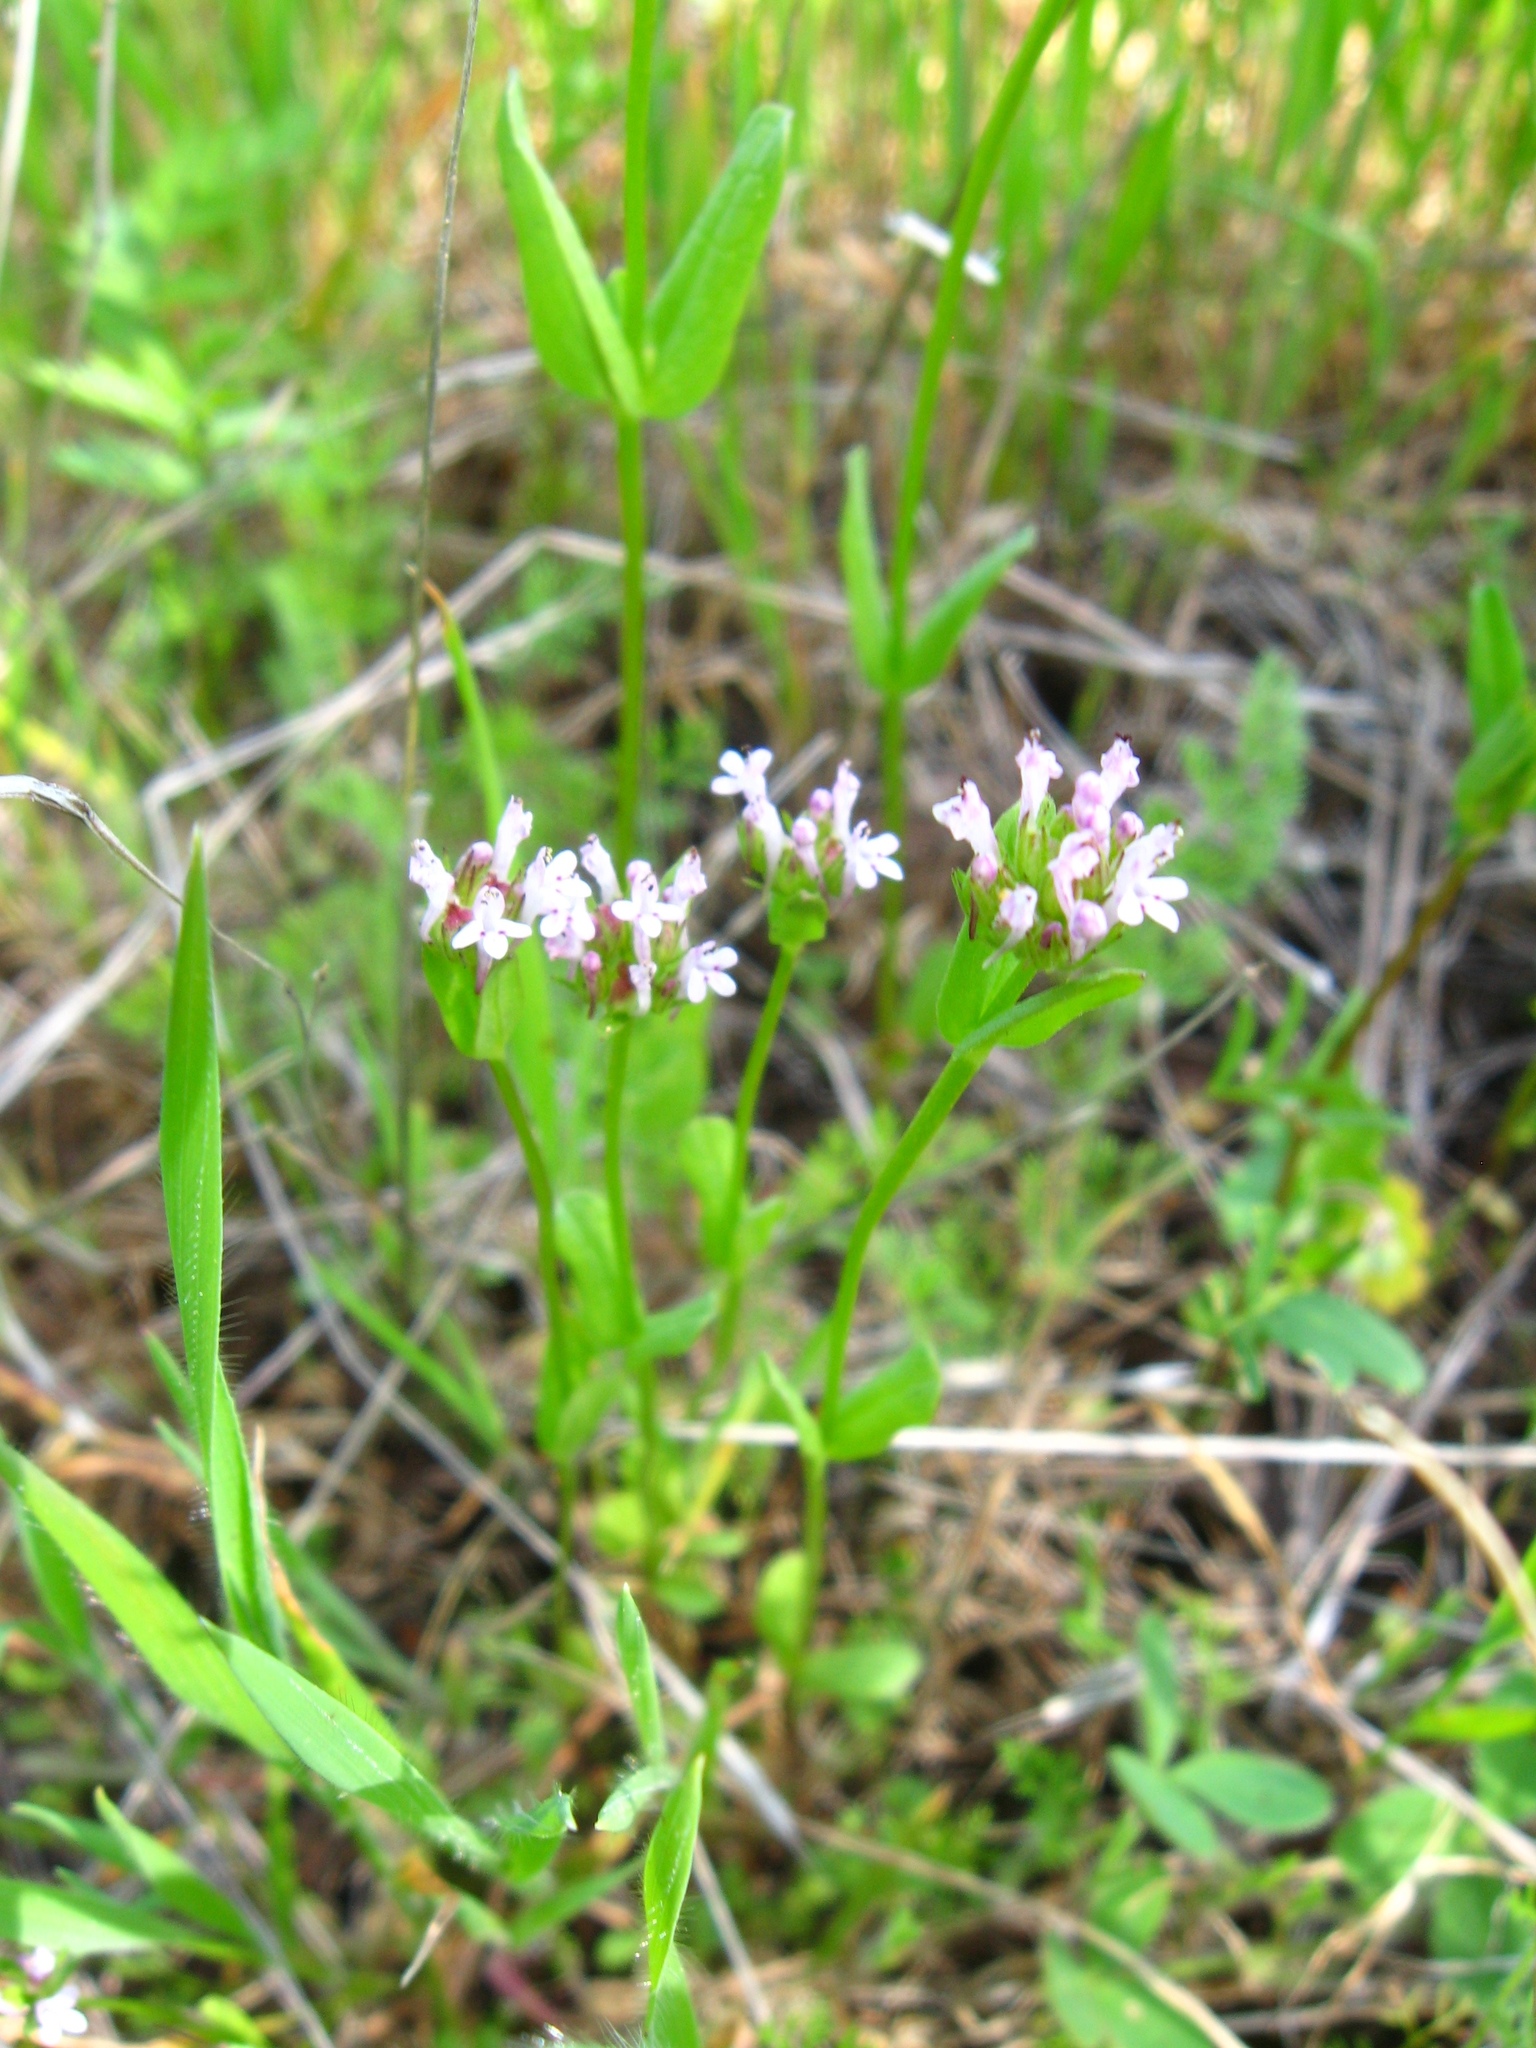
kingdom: Plantae
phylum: Tracheophyta
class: Magnoliopsida
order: Dipsacales
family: Caprifoliaceae
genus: Plectritis
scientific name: Plectritis ciliosa
